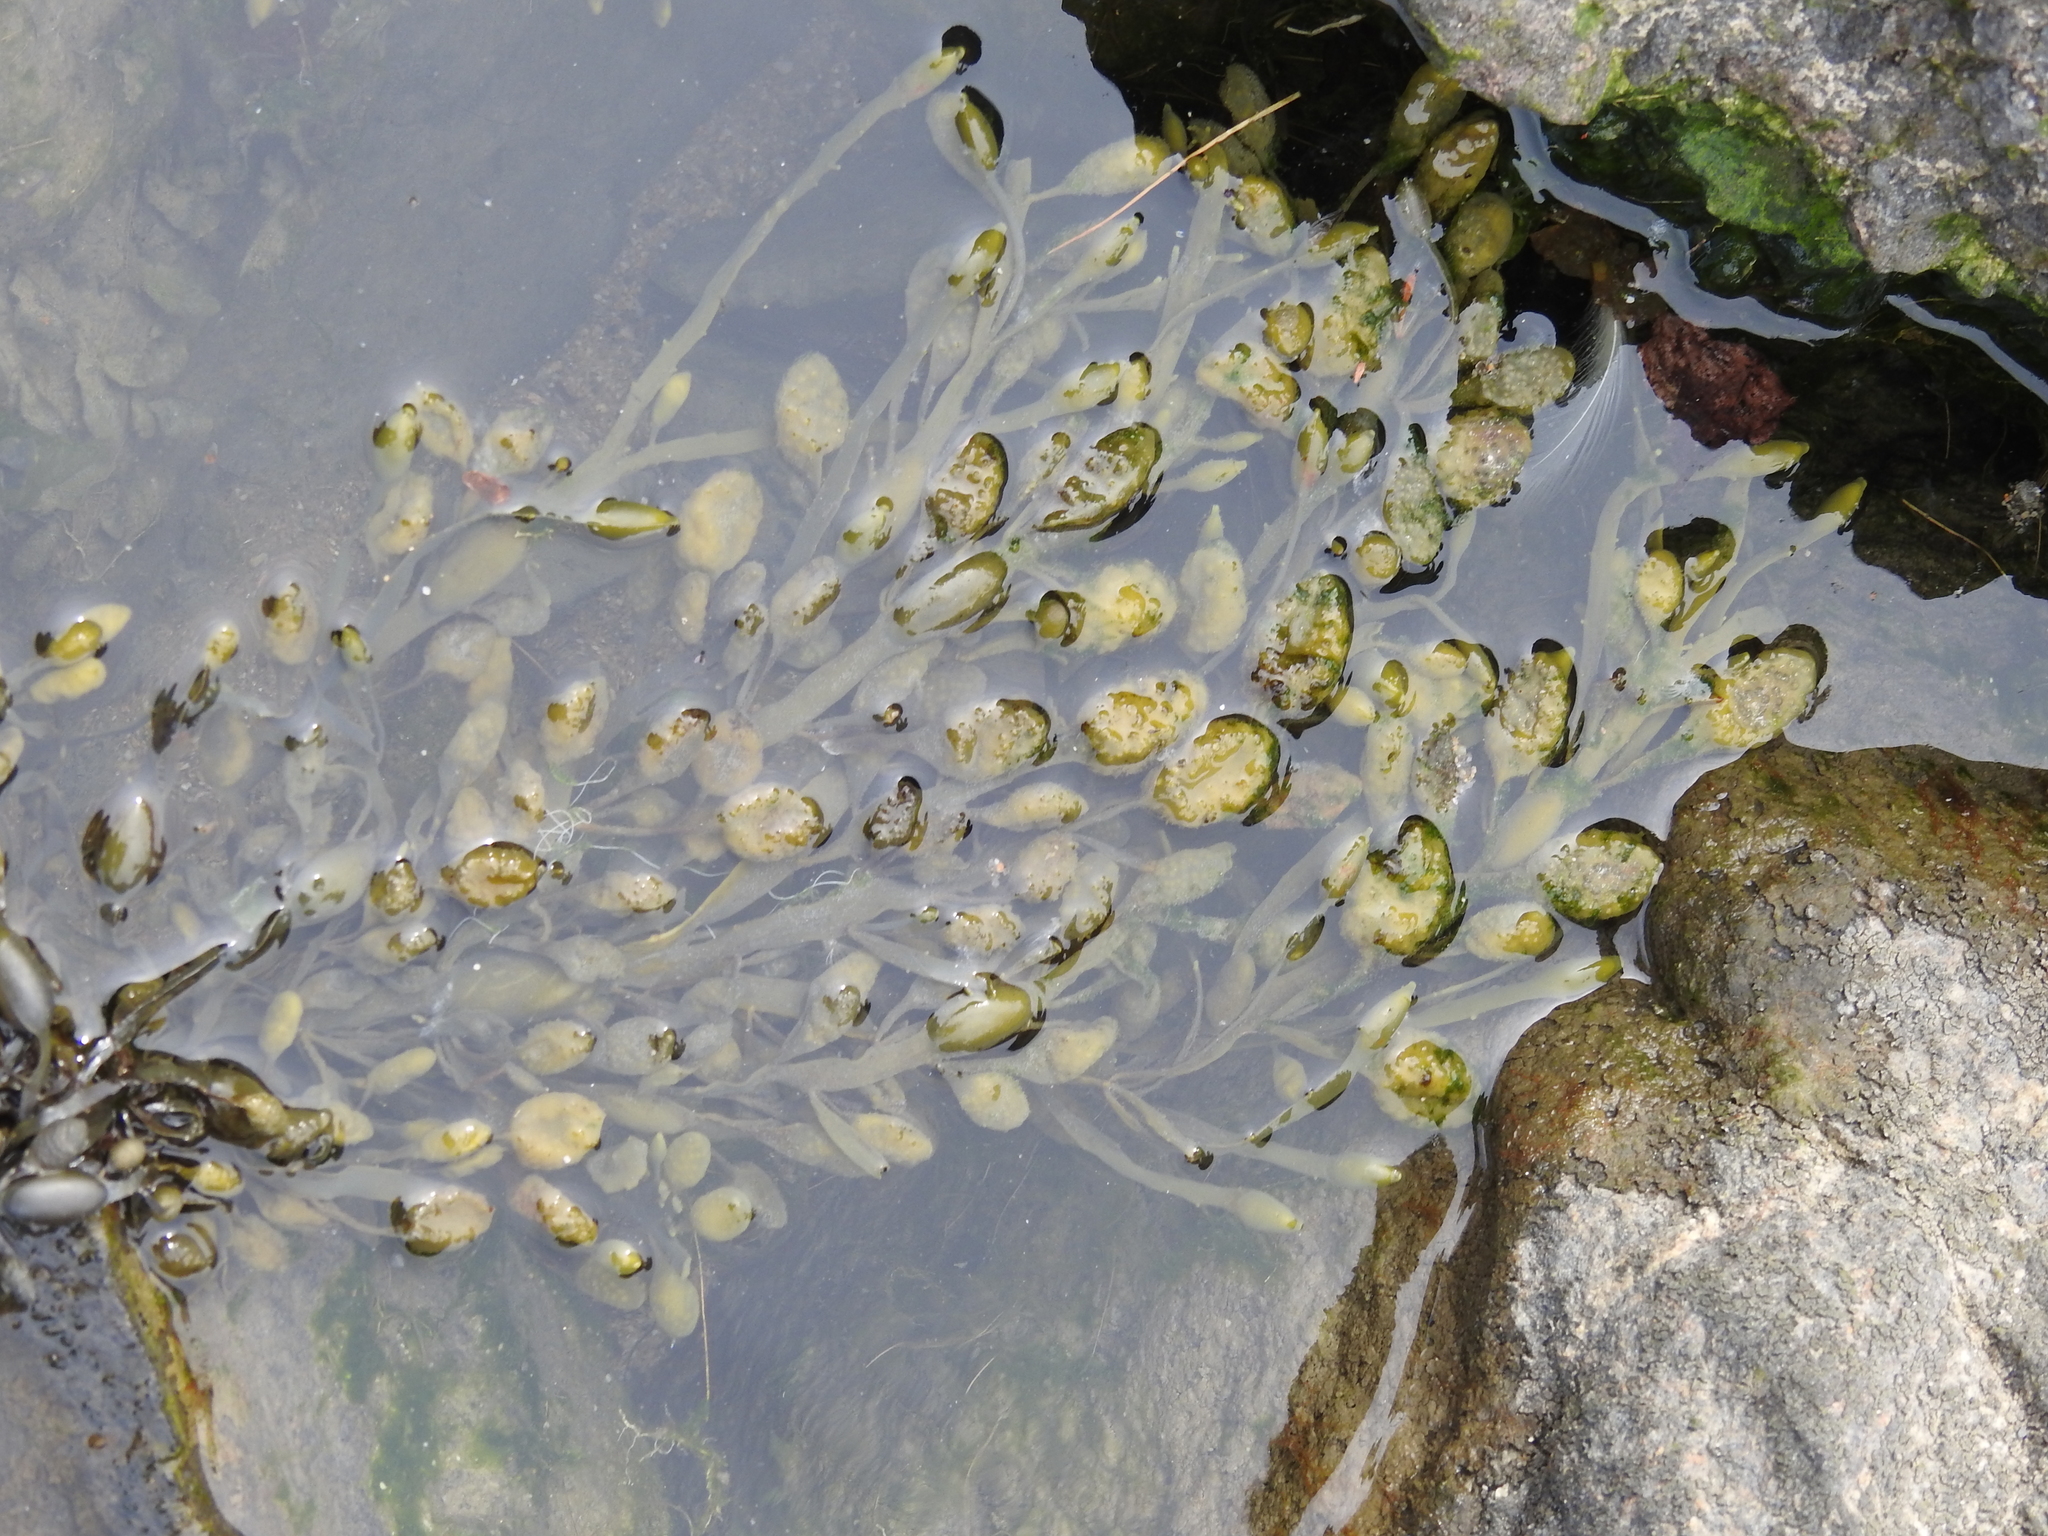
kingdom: Chromista
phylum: Ochrophyta
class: Phaeophyceae
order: Fucales
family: Fucaceae
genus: Ascophyllum
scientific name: Ascophyllum nodosum
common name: Knotted wrack
